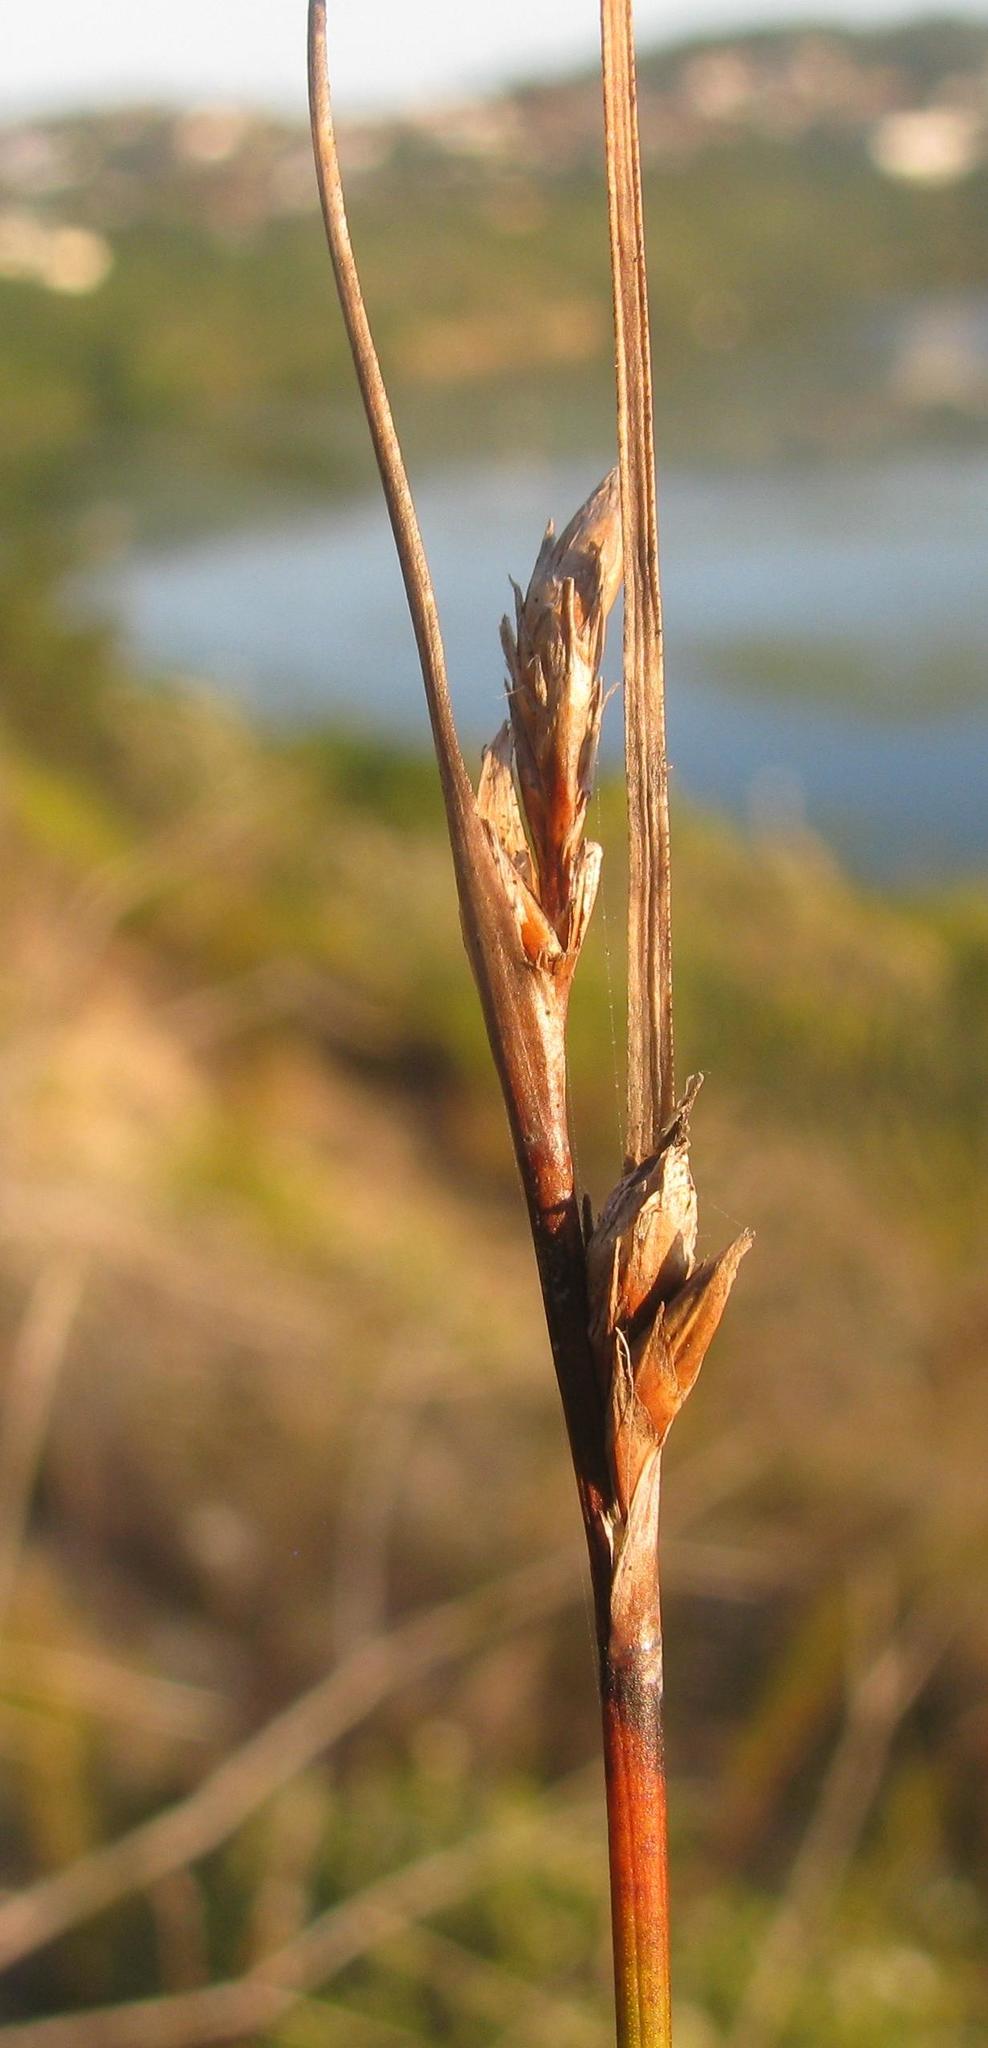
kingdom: Plantae
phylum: Tracheophyta
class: Liliopsida
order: Poales
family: Cyperaceae
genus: Schoenus
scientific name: Schoenus arenicola
